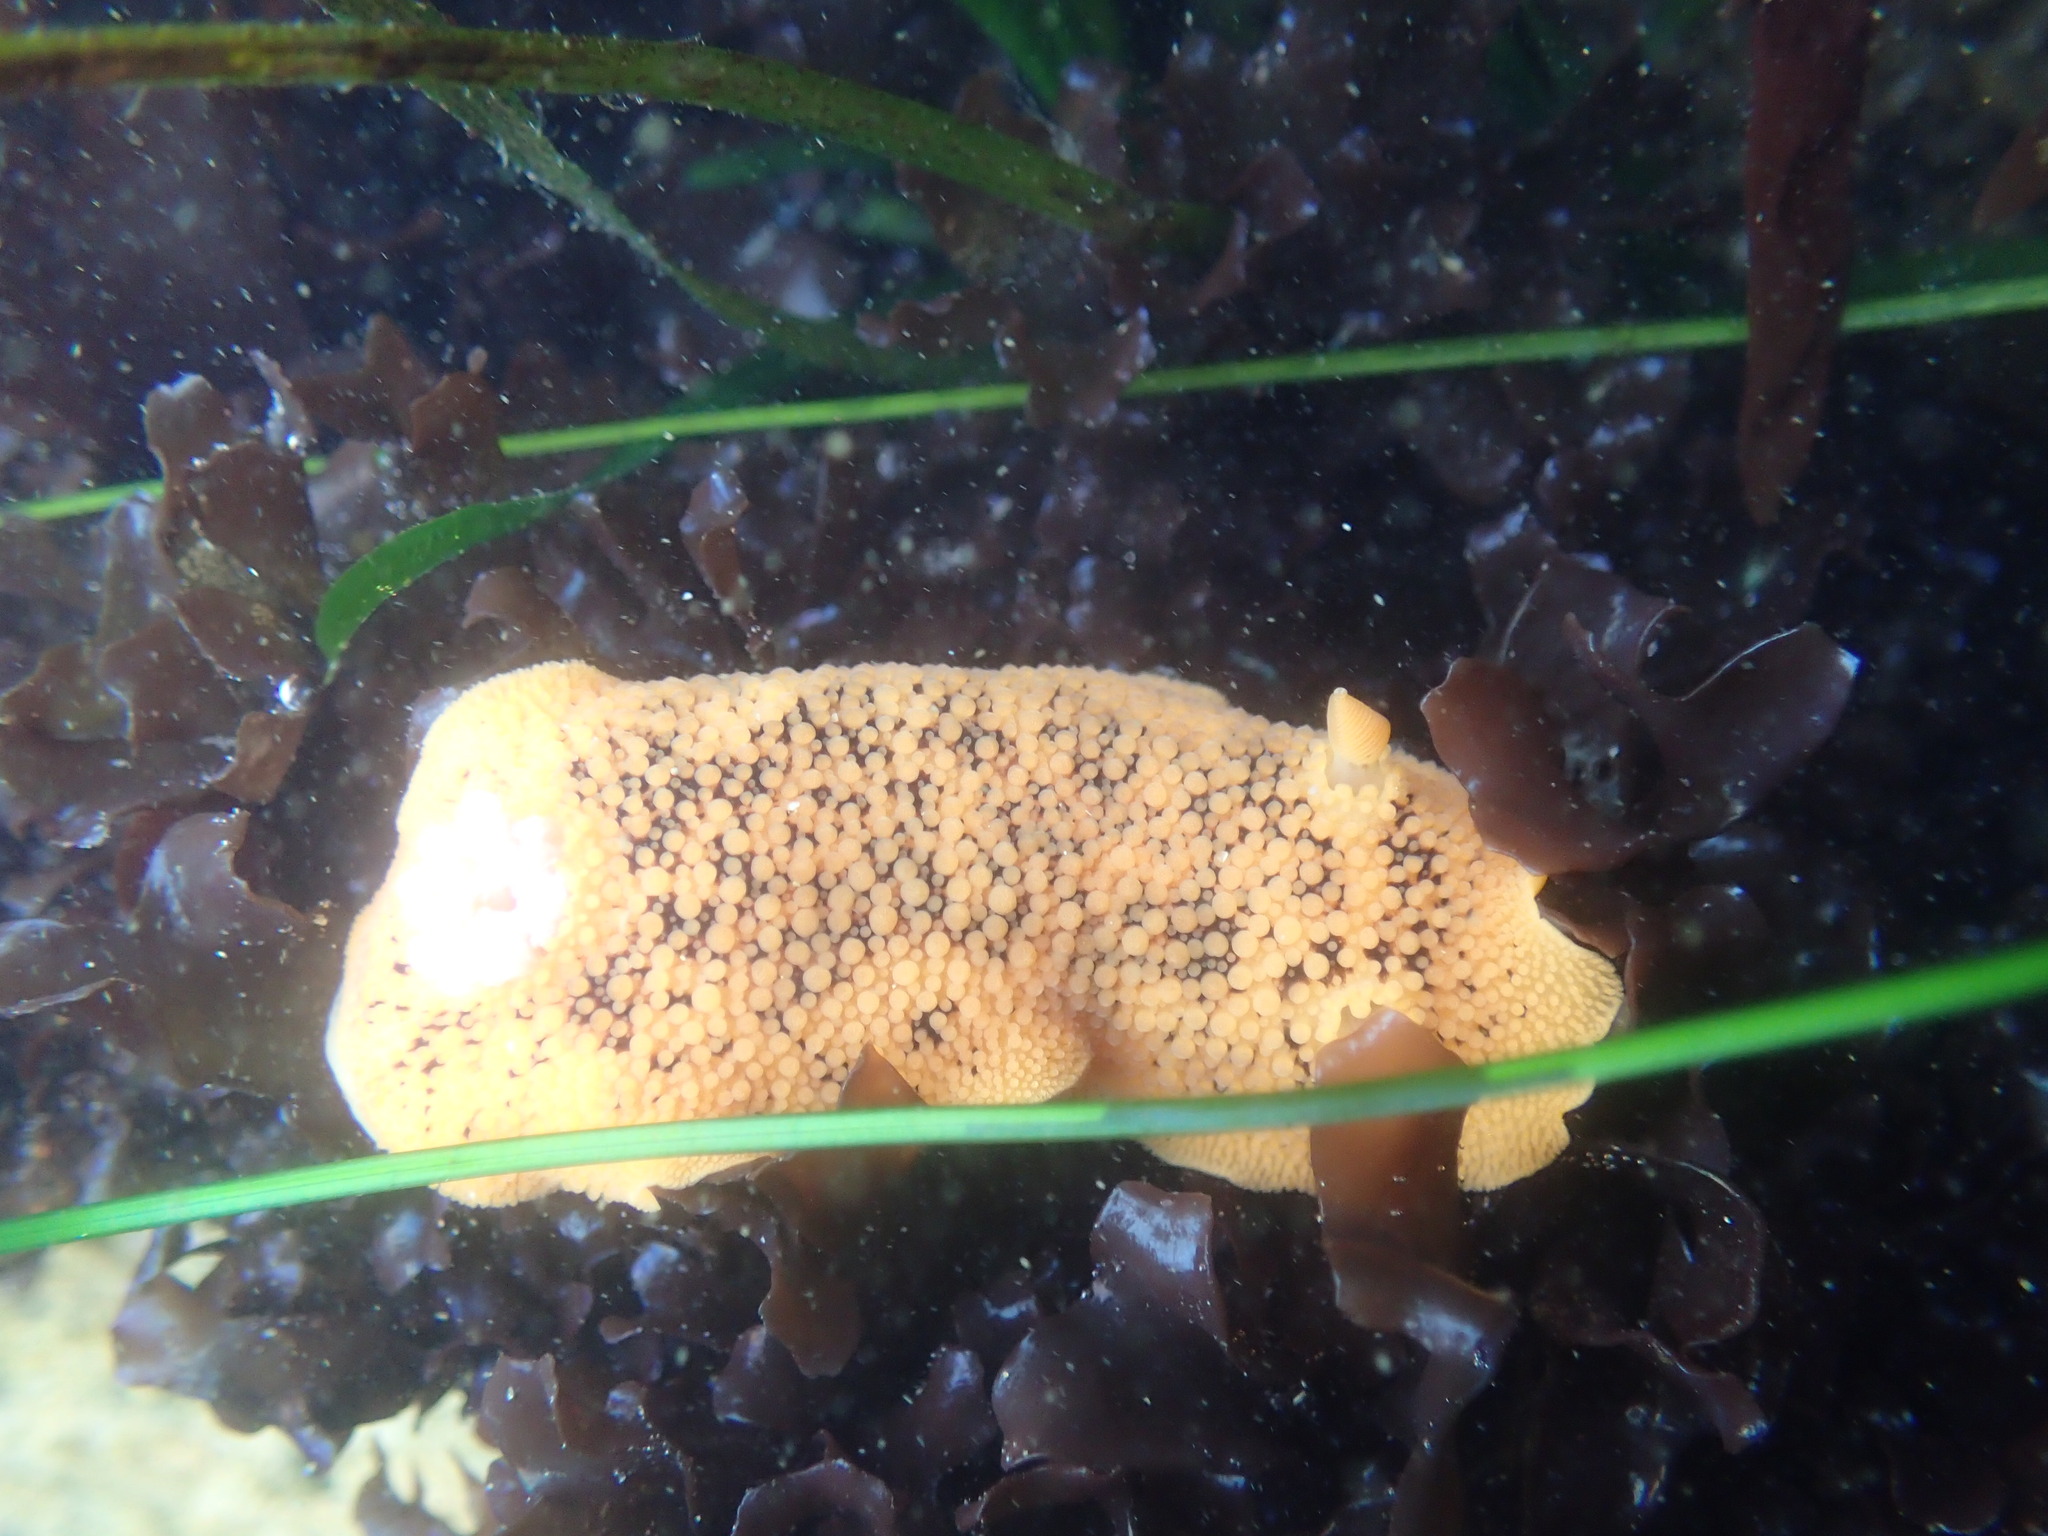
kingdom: Animalia
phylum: Mollusca
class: Gastropoda
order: Nudibranchia
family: Discodorididae
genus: Peltodoris
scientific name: Peltodoris nobilis
